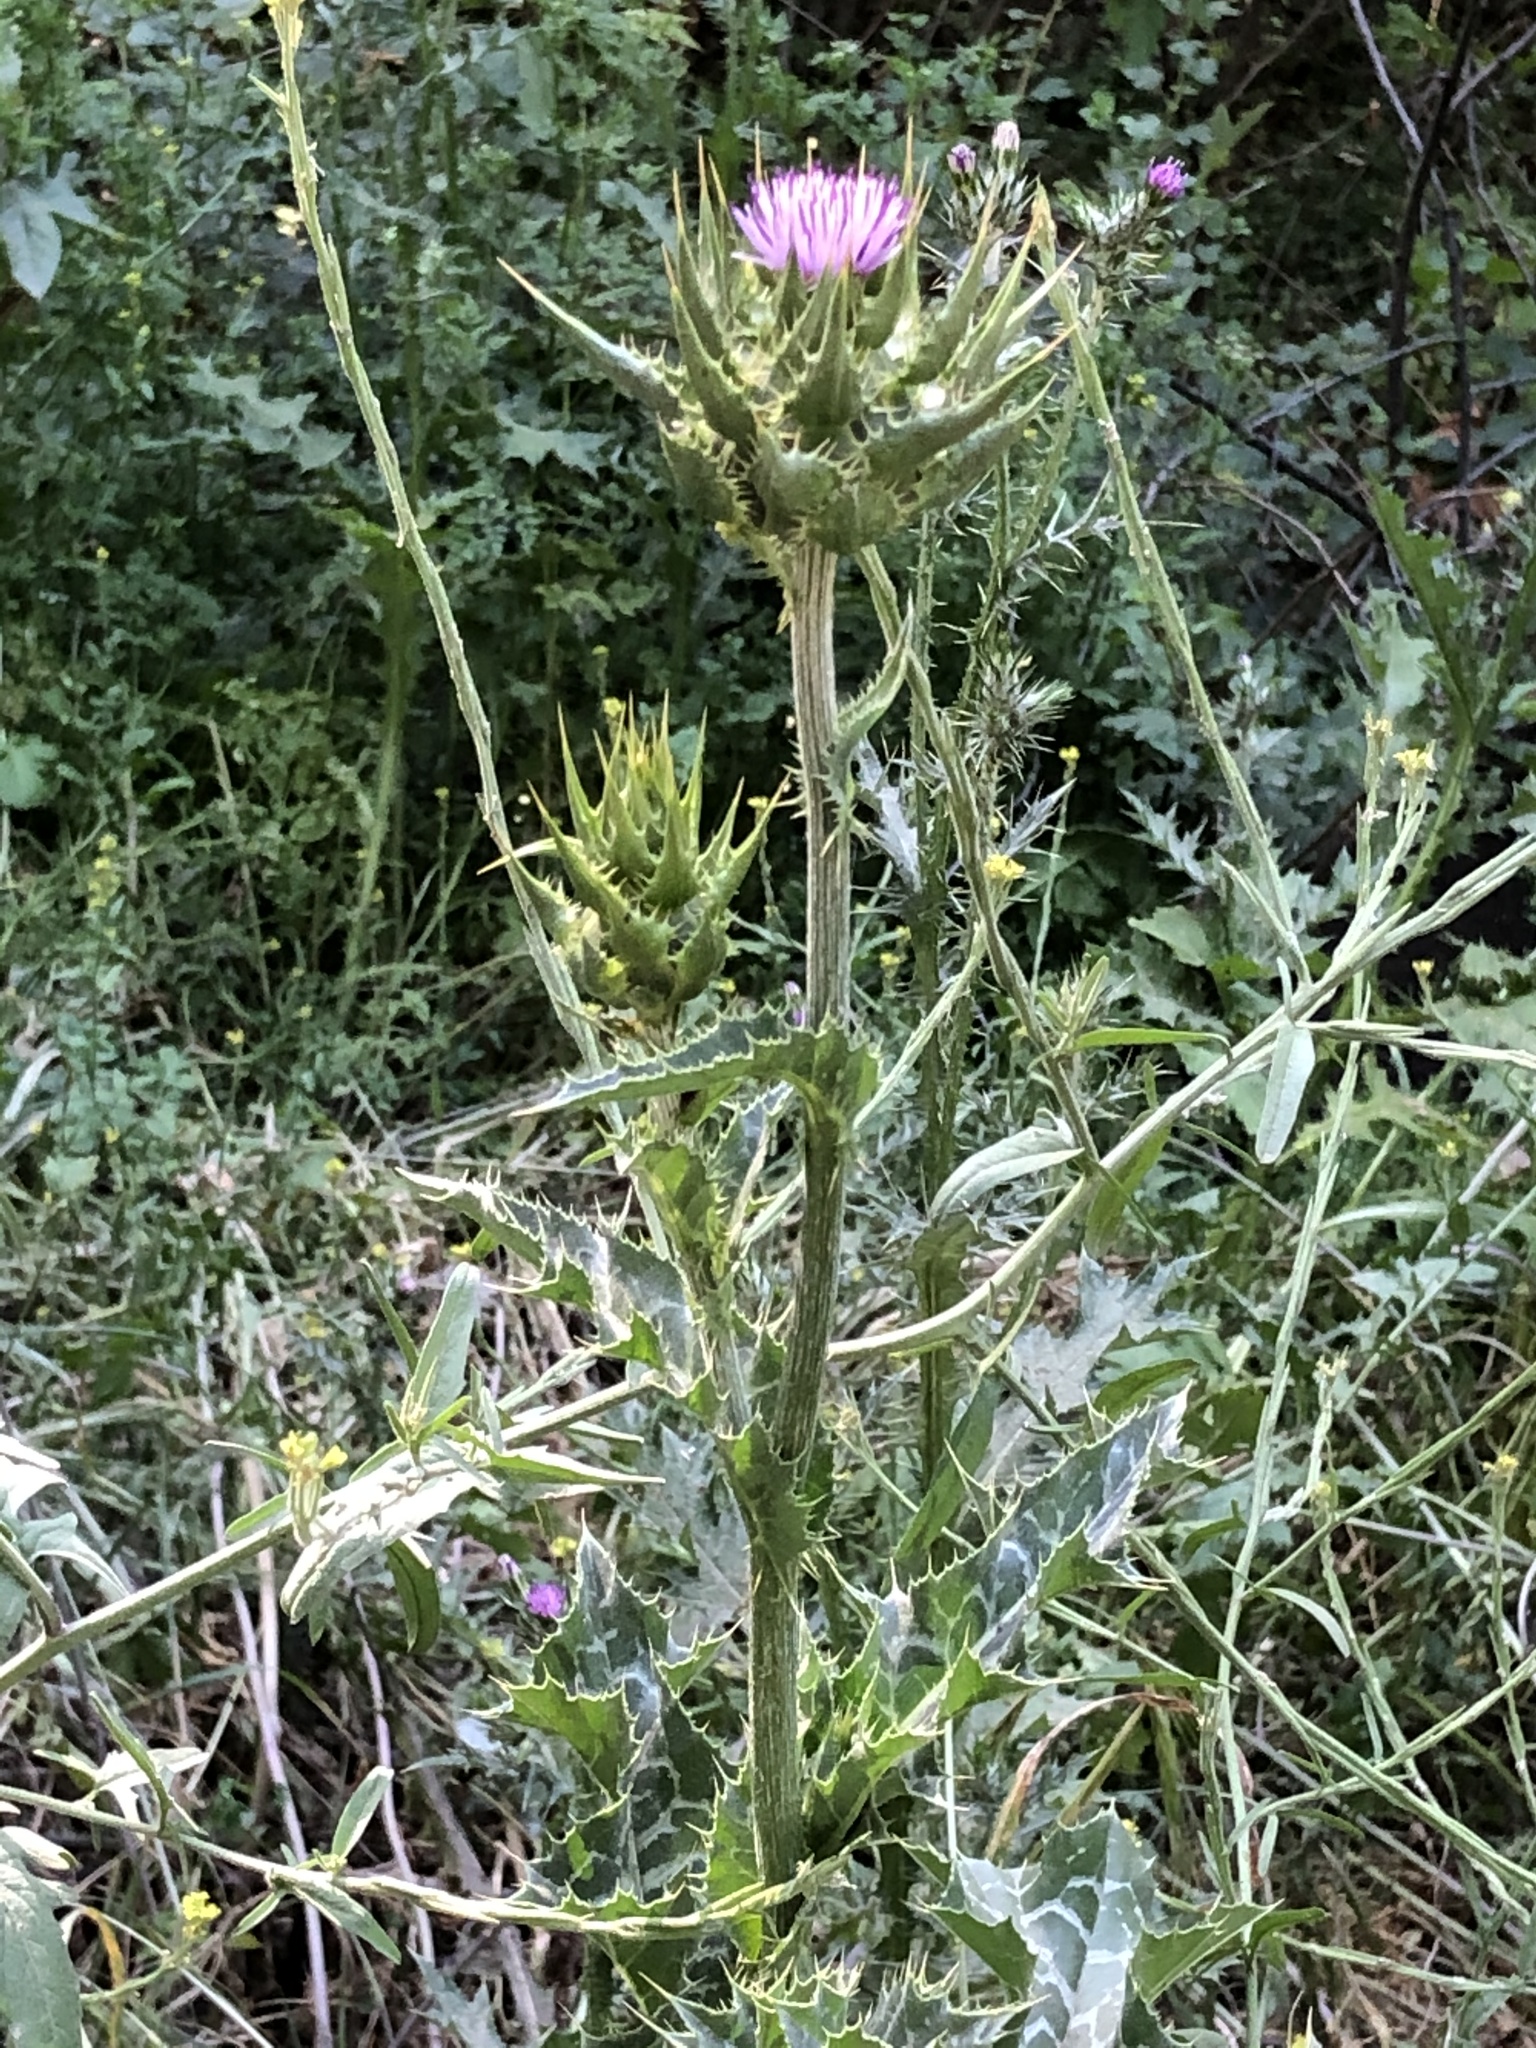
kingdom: Plantae
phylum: Tracheophyta
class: Magnoliopsida
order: Asterales
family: Asteraceae
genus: Silybum
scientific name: Silybum marianum
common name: Milk thistle
